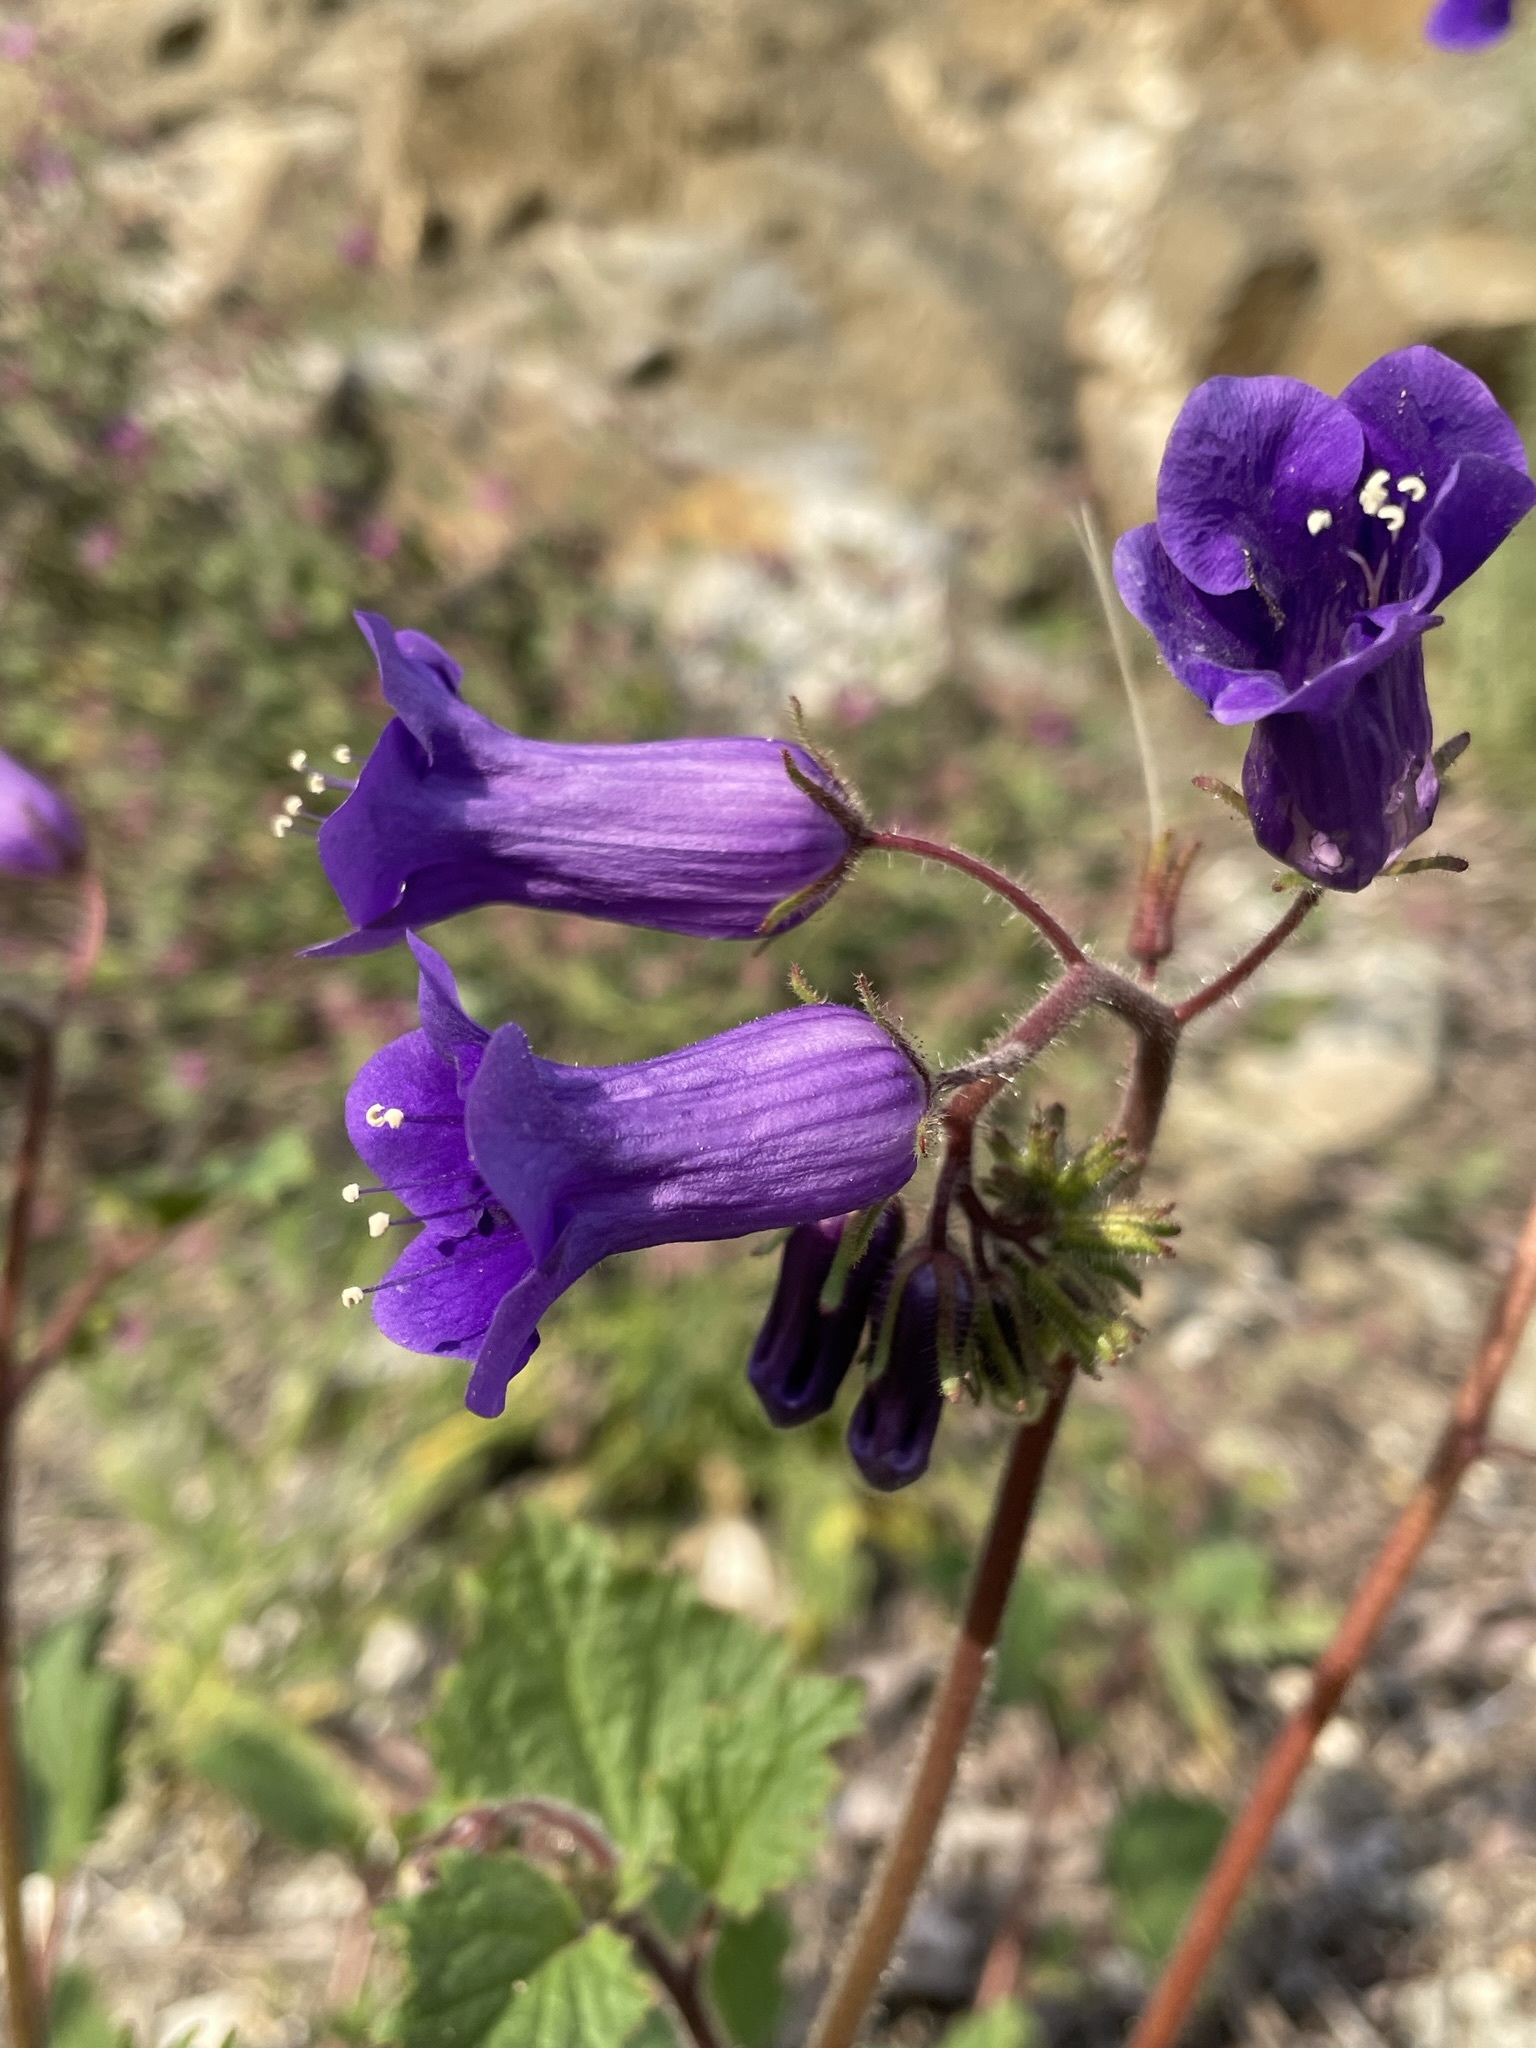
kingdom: Plantae
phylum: Tracheophyta
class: Magnoliopsida
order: Boraginales
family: Hydrophyllaceae
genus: Phacelia
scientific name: Phacelia minor
